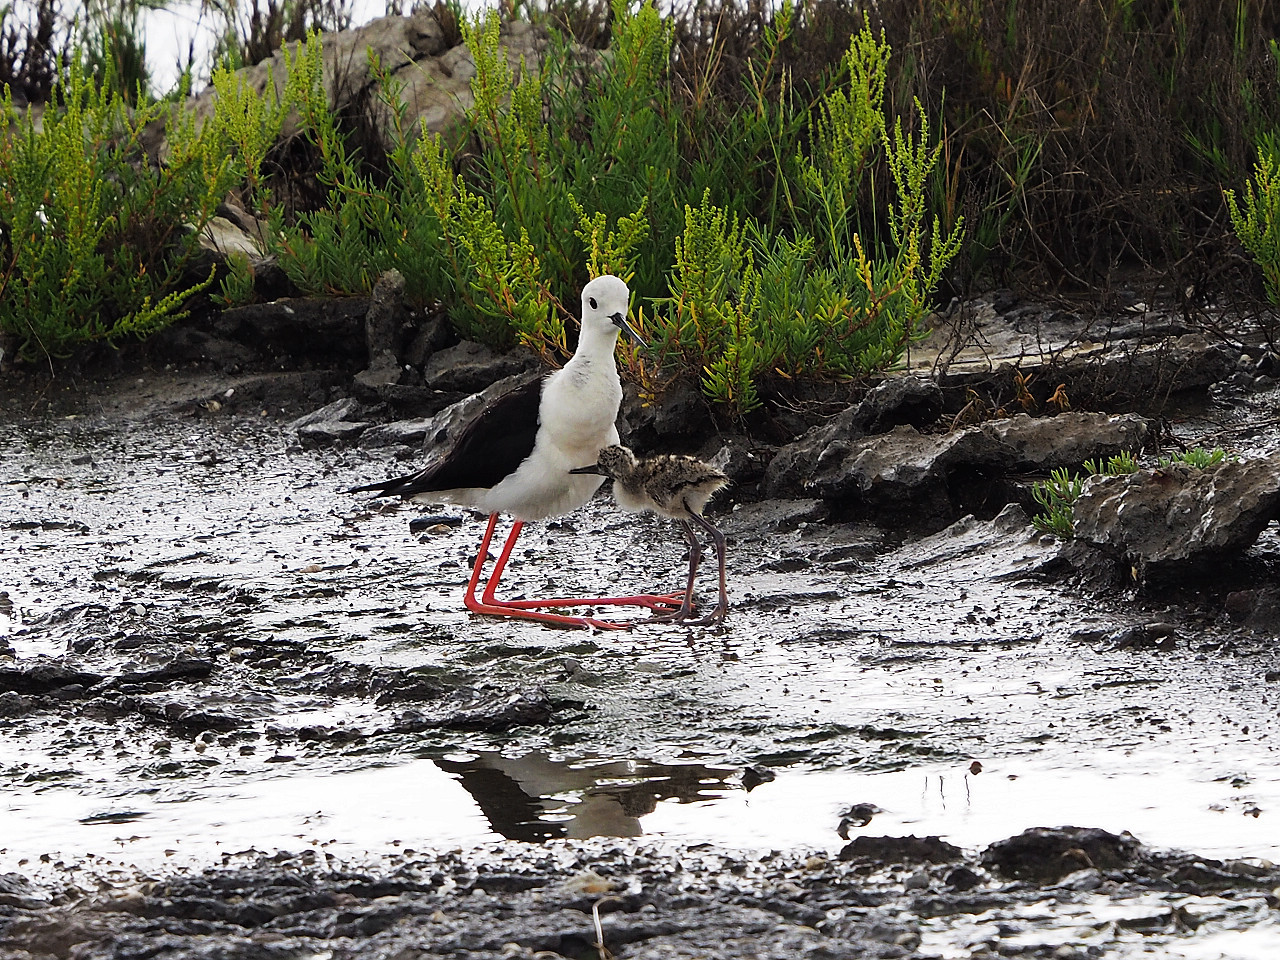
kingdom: Animalia
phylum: Chordata
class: Aves
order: Charadriiformes
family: Recurvirostridae
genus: Himantopus
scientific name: Himantopus himantopus
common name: Black-winged stilt
